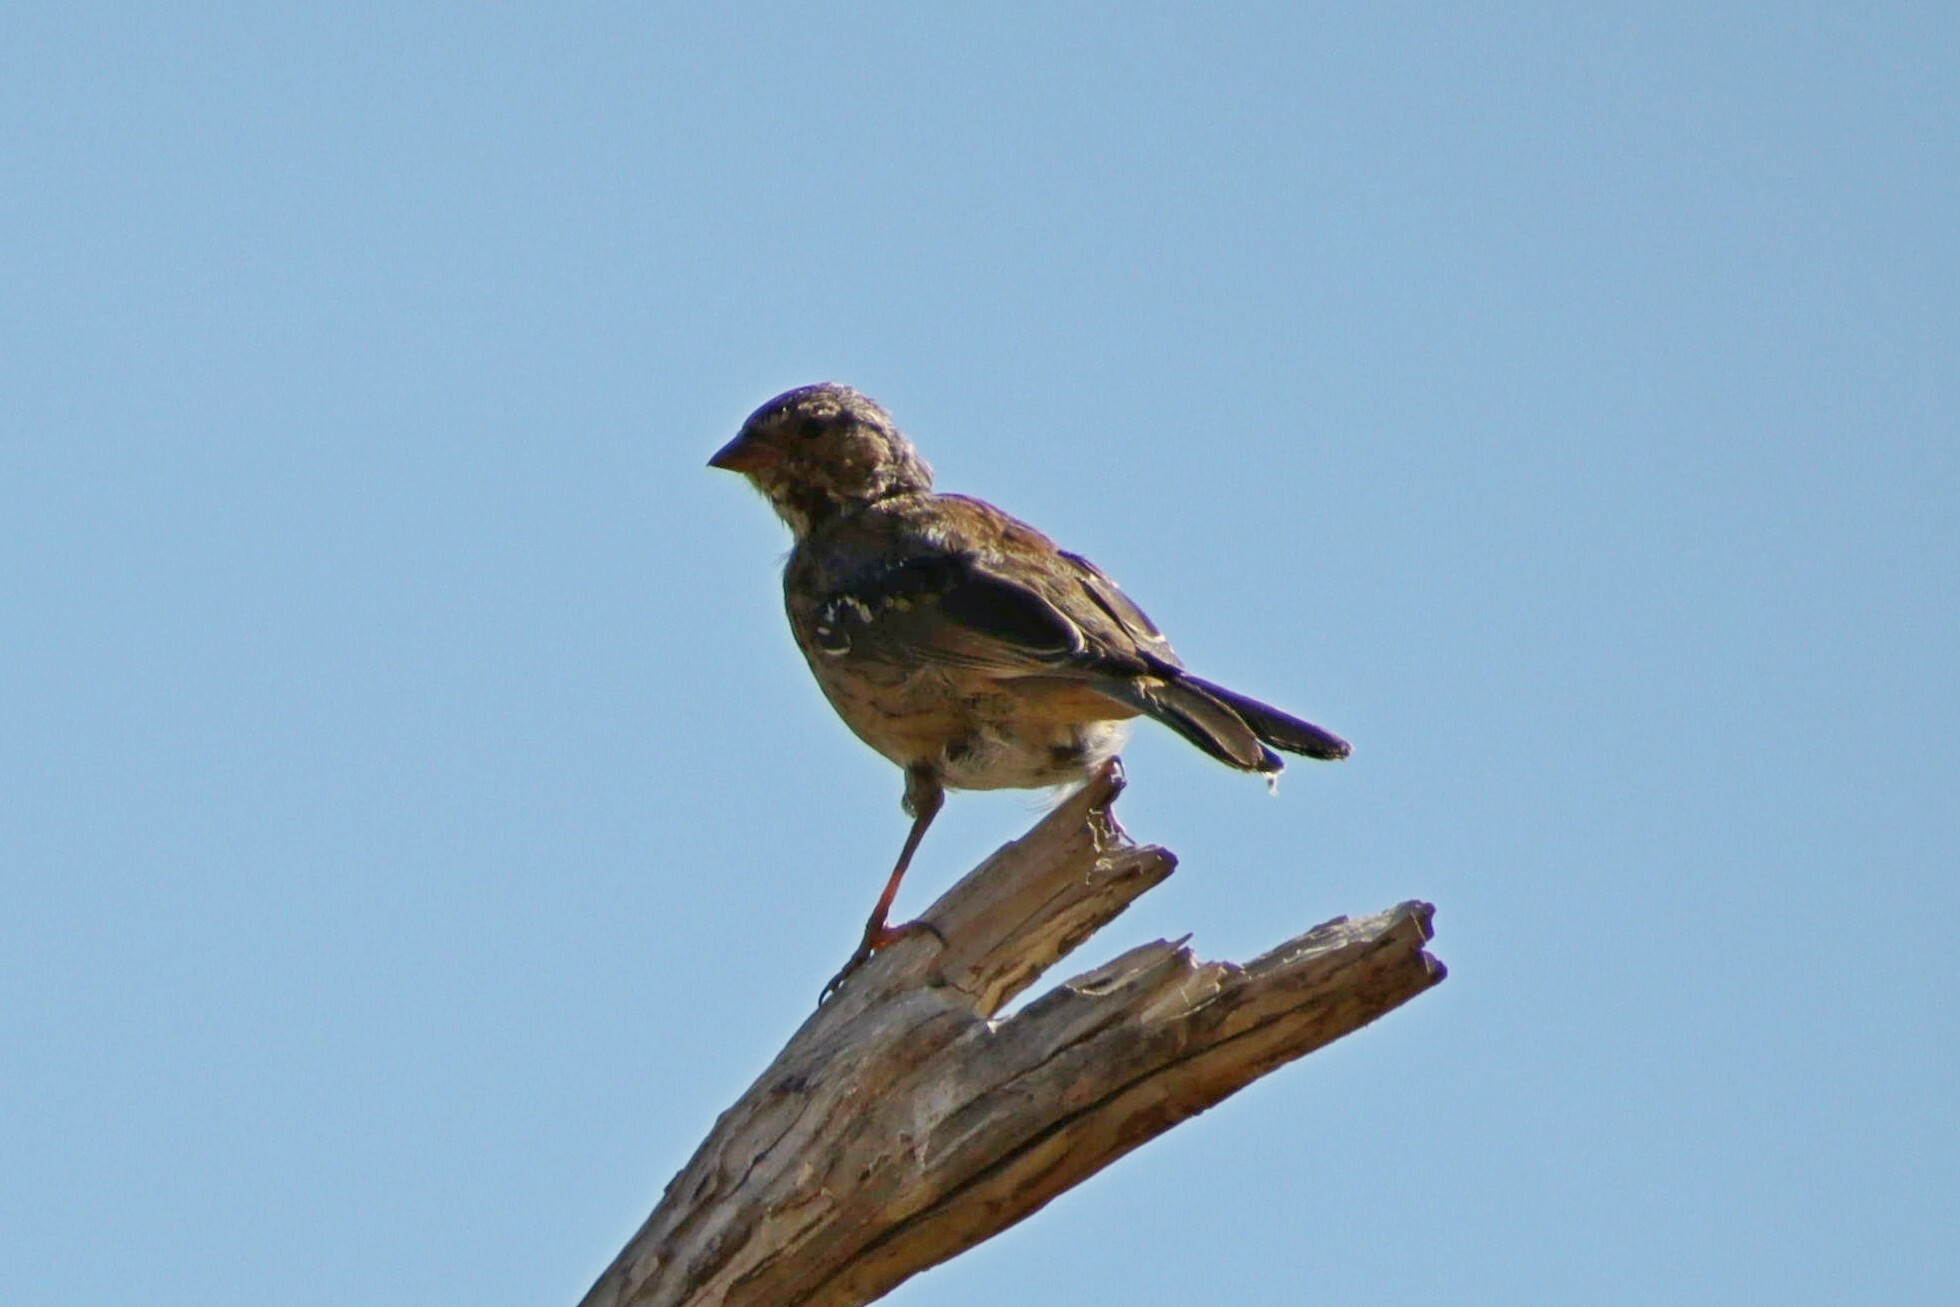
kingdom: Animalia
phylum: Chordata
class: Aves
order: Passeriformes
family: Thraupidae
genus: Rhopospina
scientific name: Rhopospina fruticeti
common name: Mourning sierra finch
